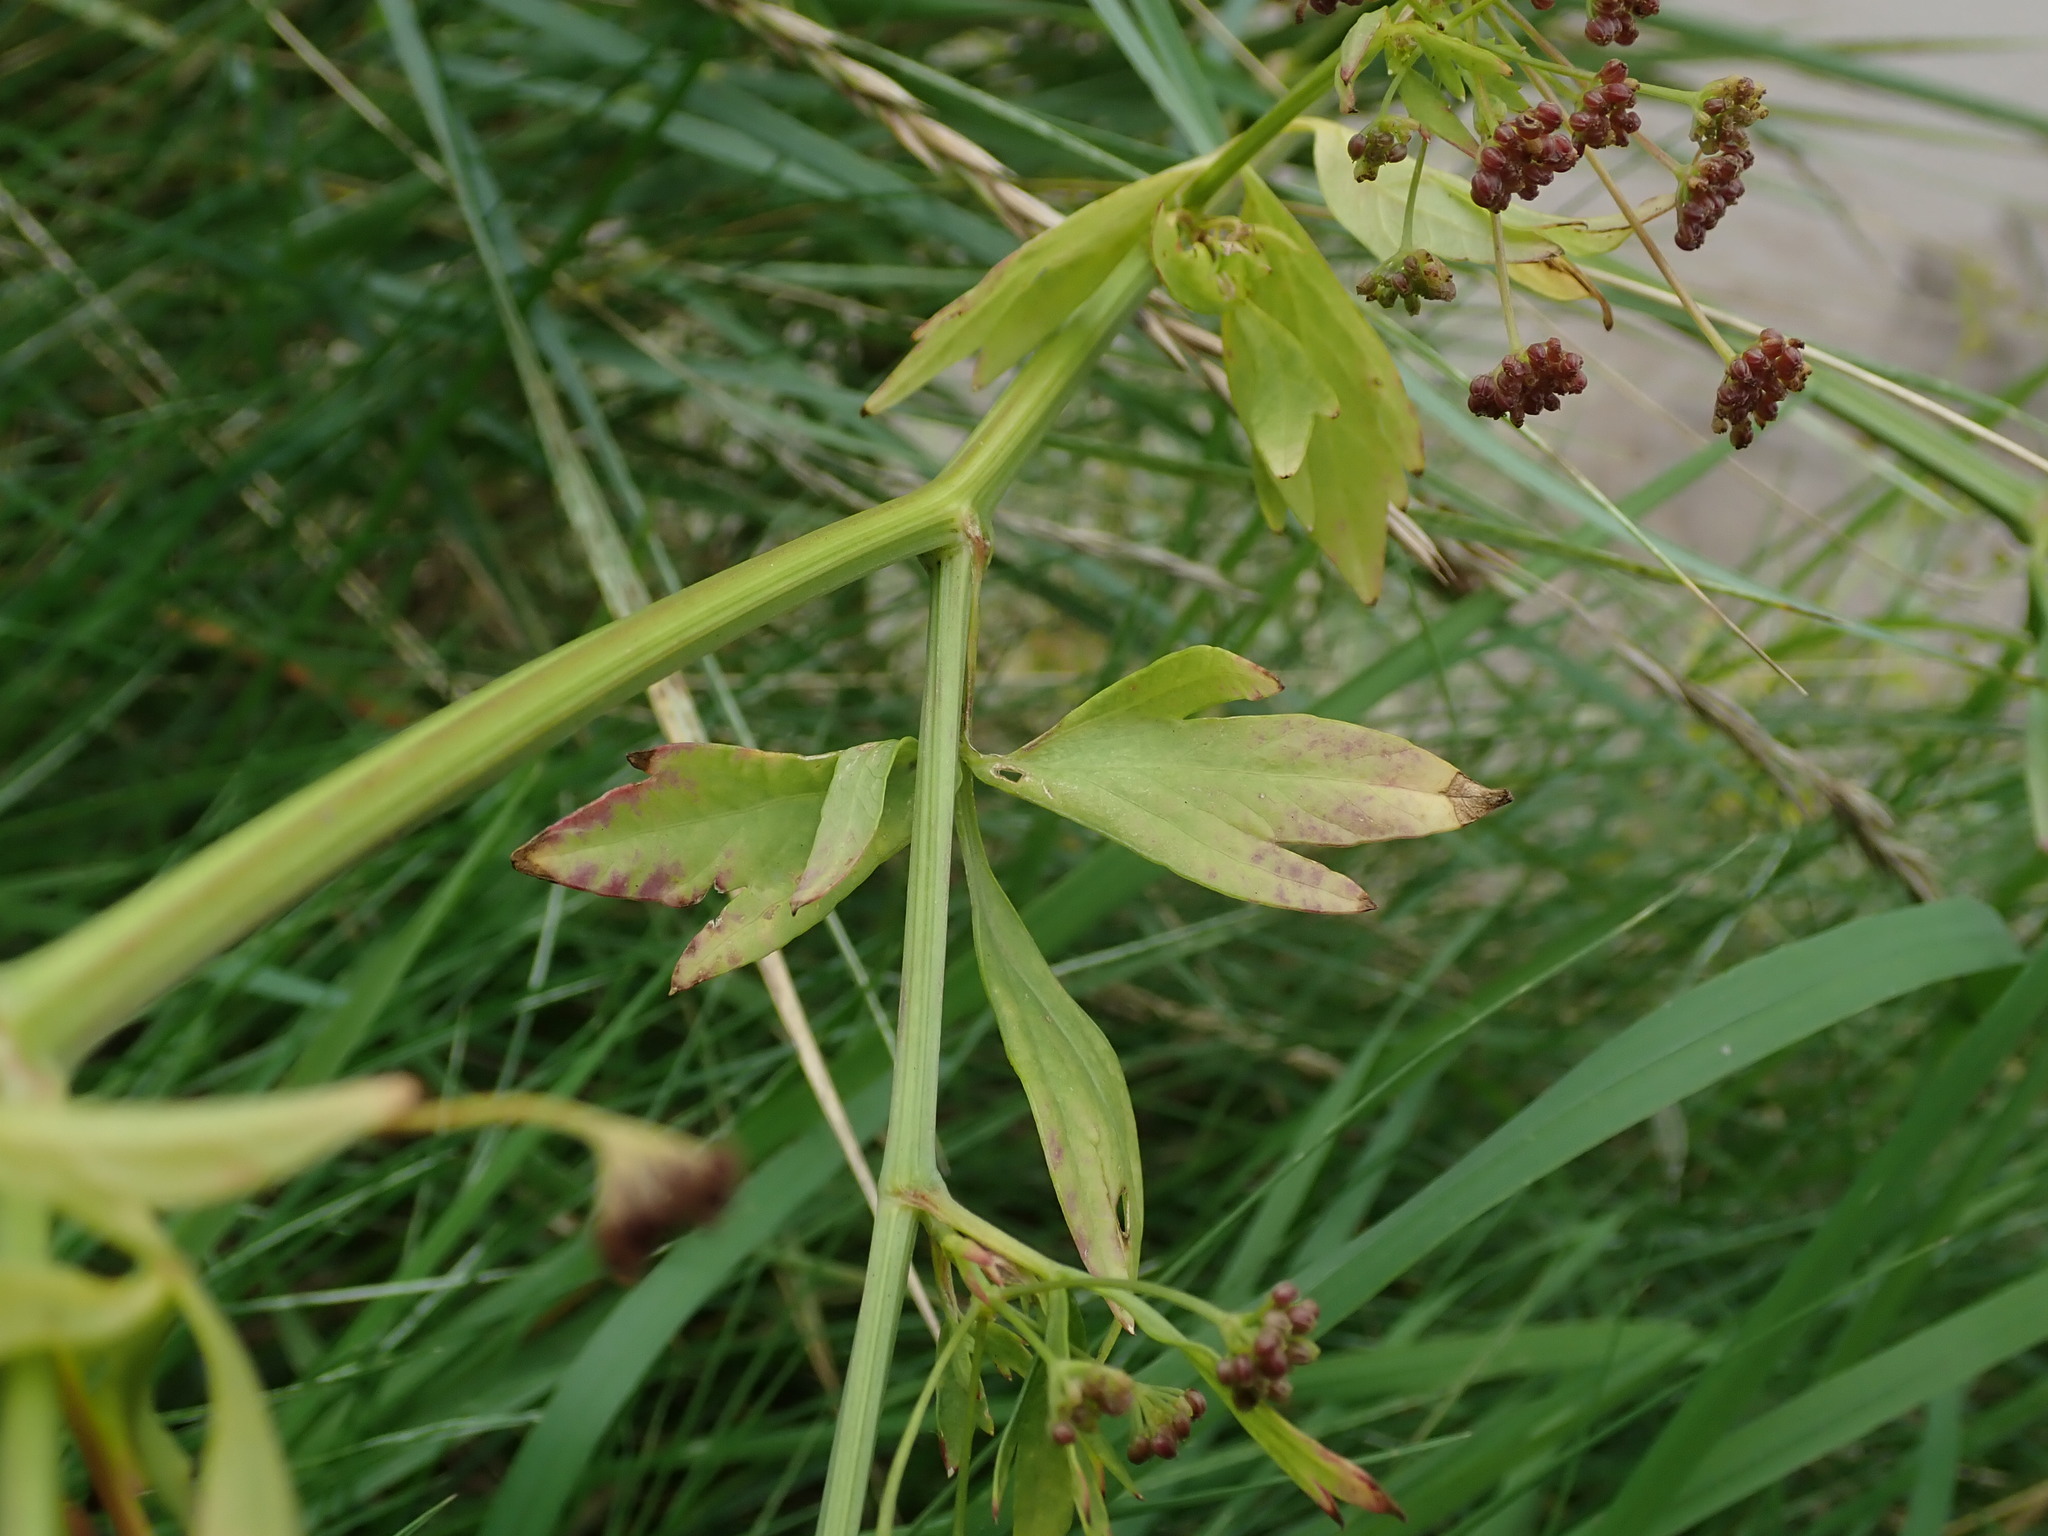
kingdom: Plantae
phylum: Tracheophyta
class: Magnoliopsida
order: Apiales
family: Apiaceae
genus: Apium
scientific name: Apium graveolens
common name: Wild celery
